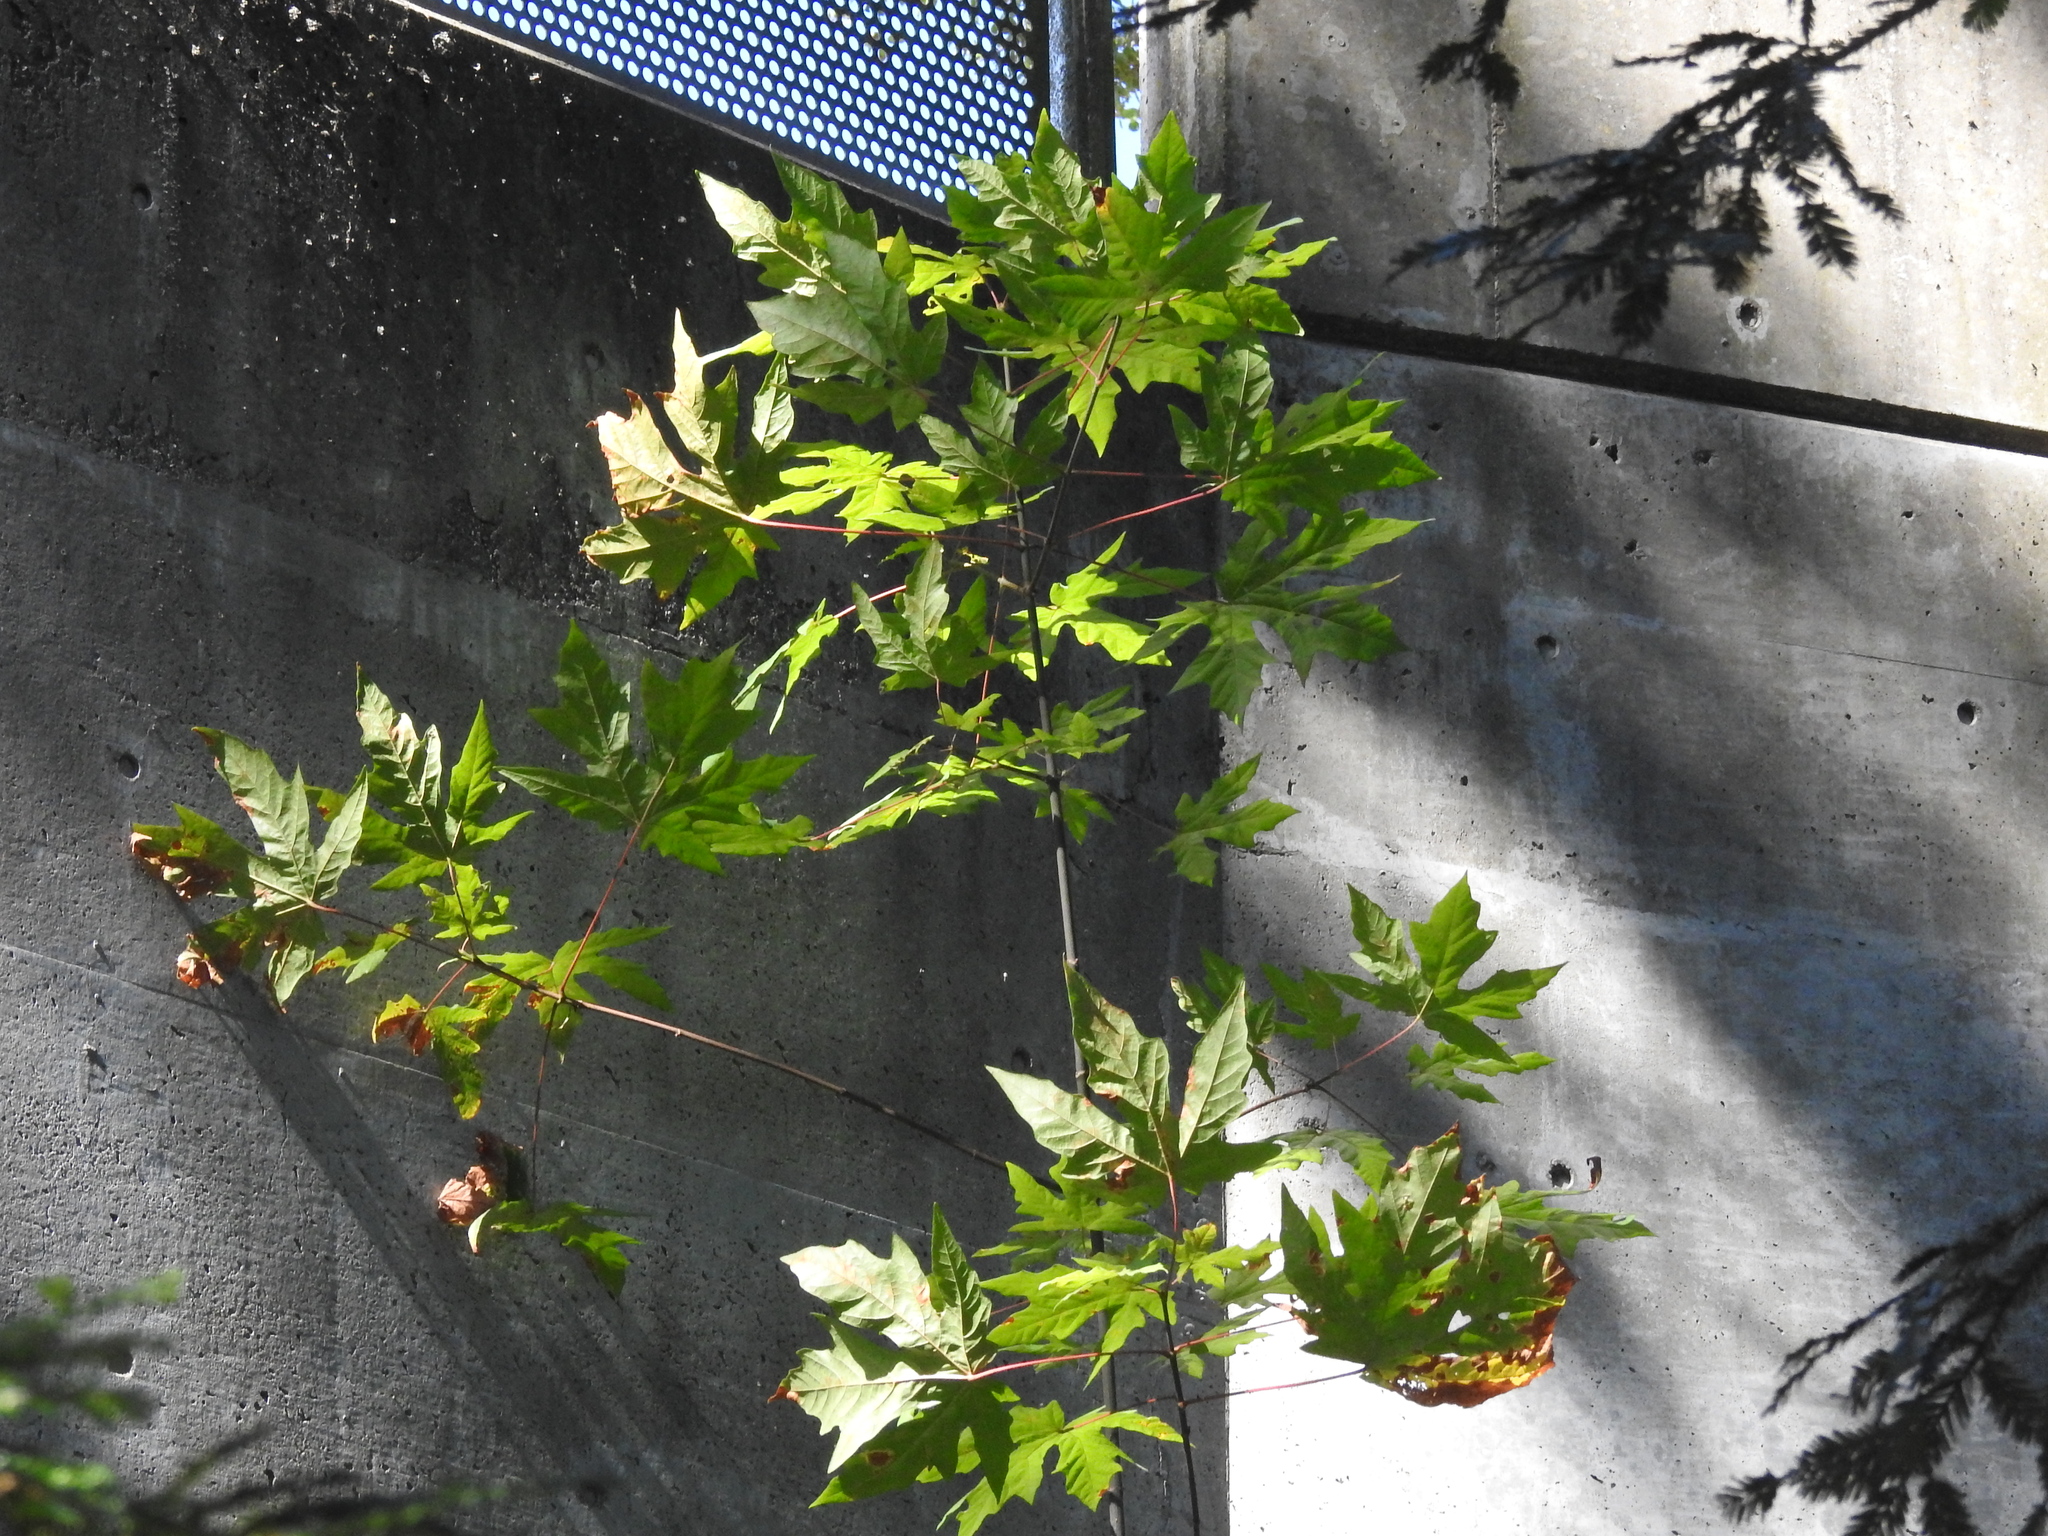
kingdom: Plantae
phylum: Tracheophyta
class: Magnoliopsida
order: Sapindales
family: Sapindaceae
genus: Acer
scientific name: Acer macrophyllum
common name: Oregon maple
